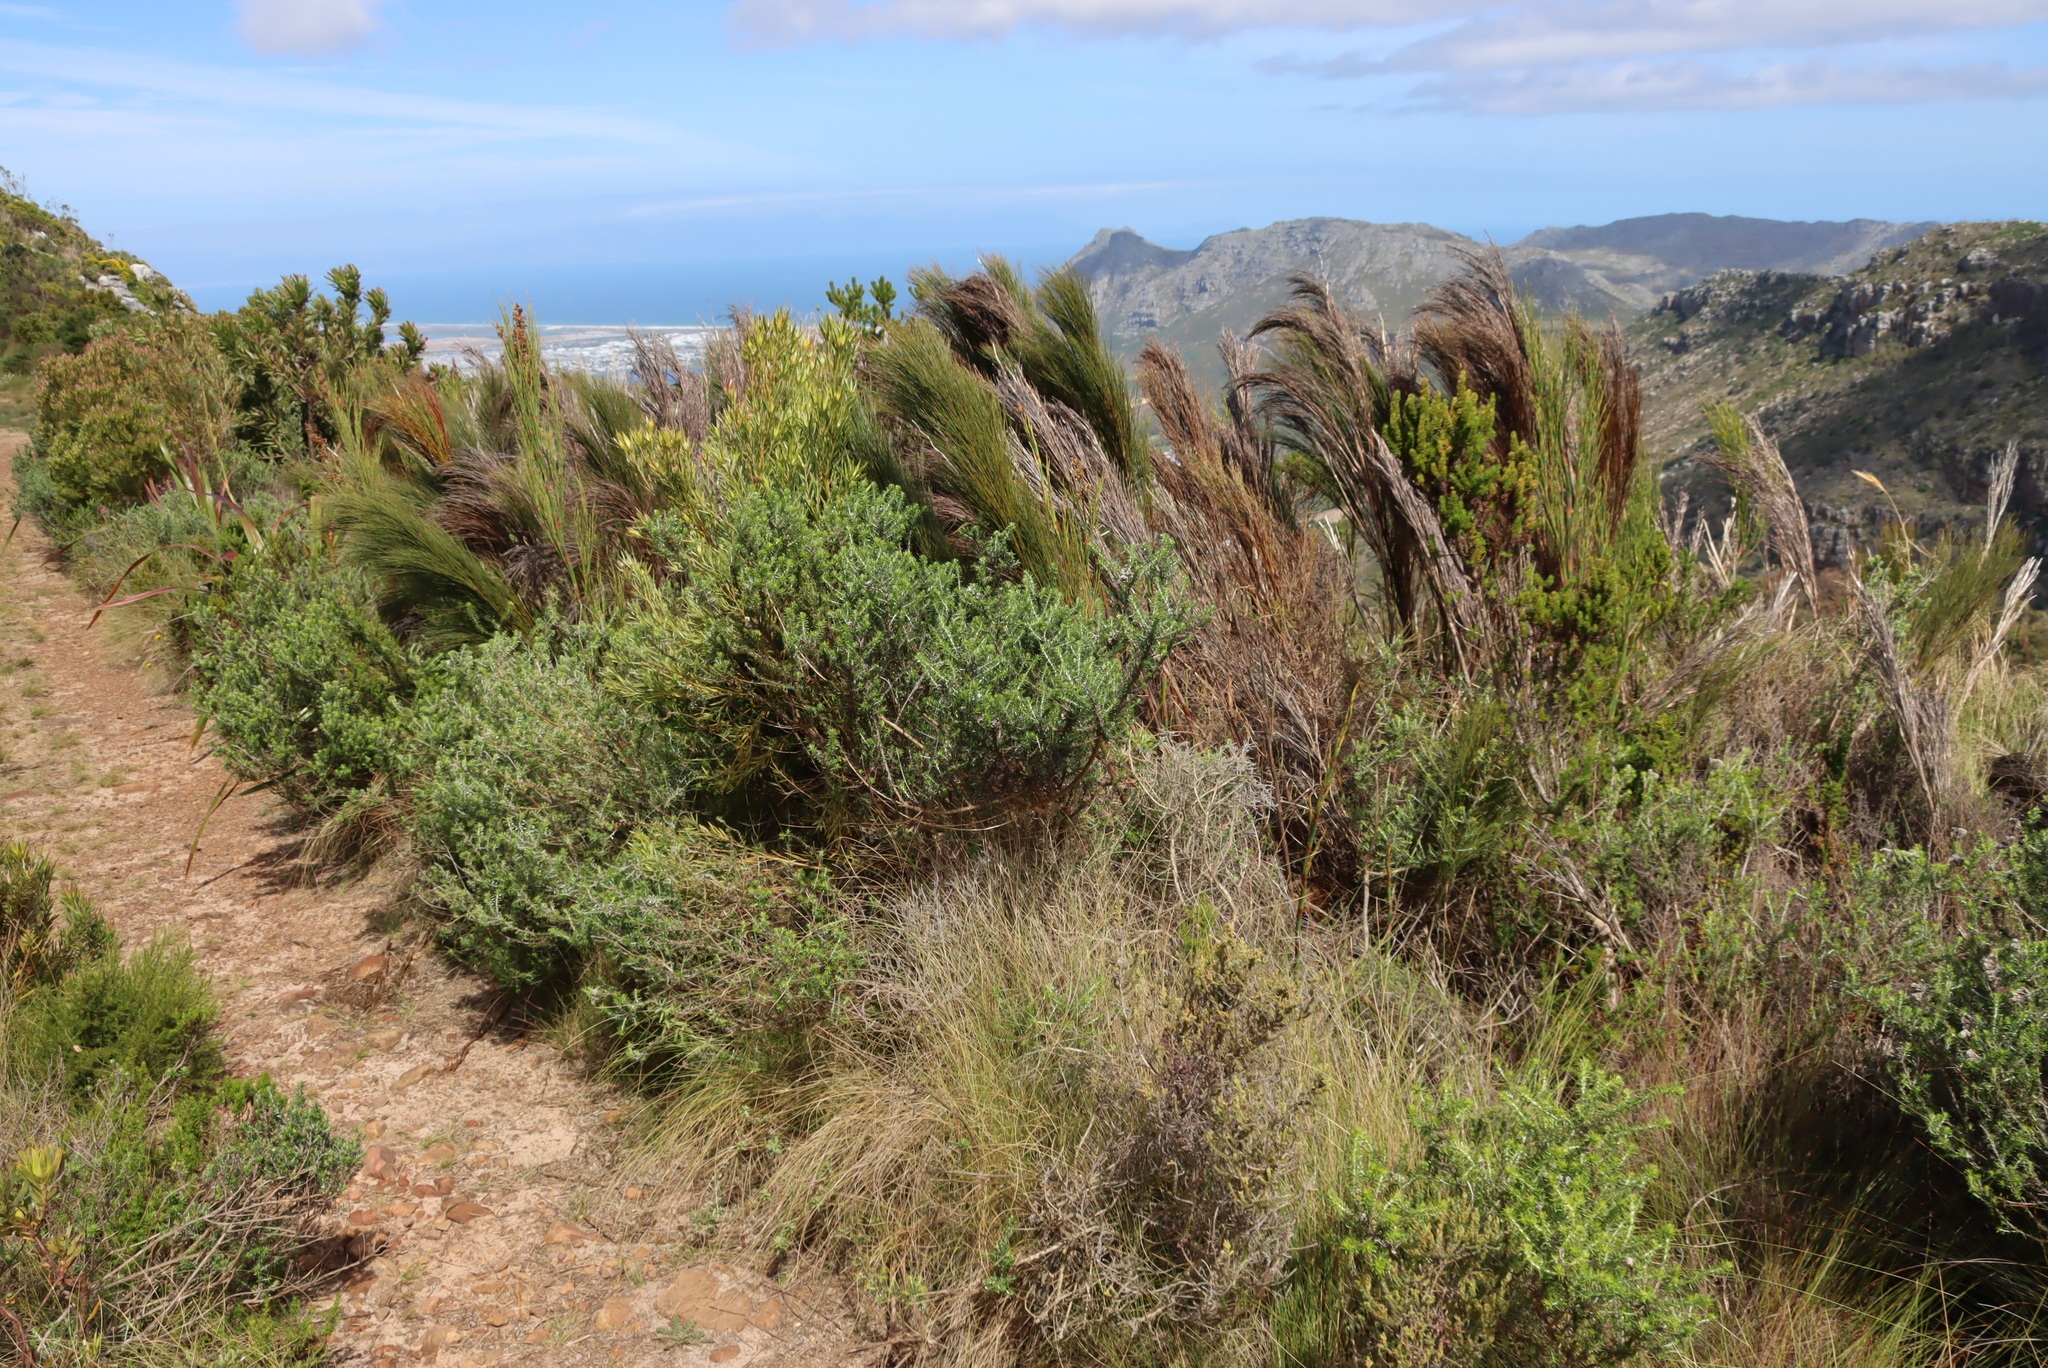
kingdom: Plantae
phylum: Tracheophyta
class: Liliopsida
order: Poales
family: Restionaceae
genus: Cannomois
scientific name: Cannomois virgata
